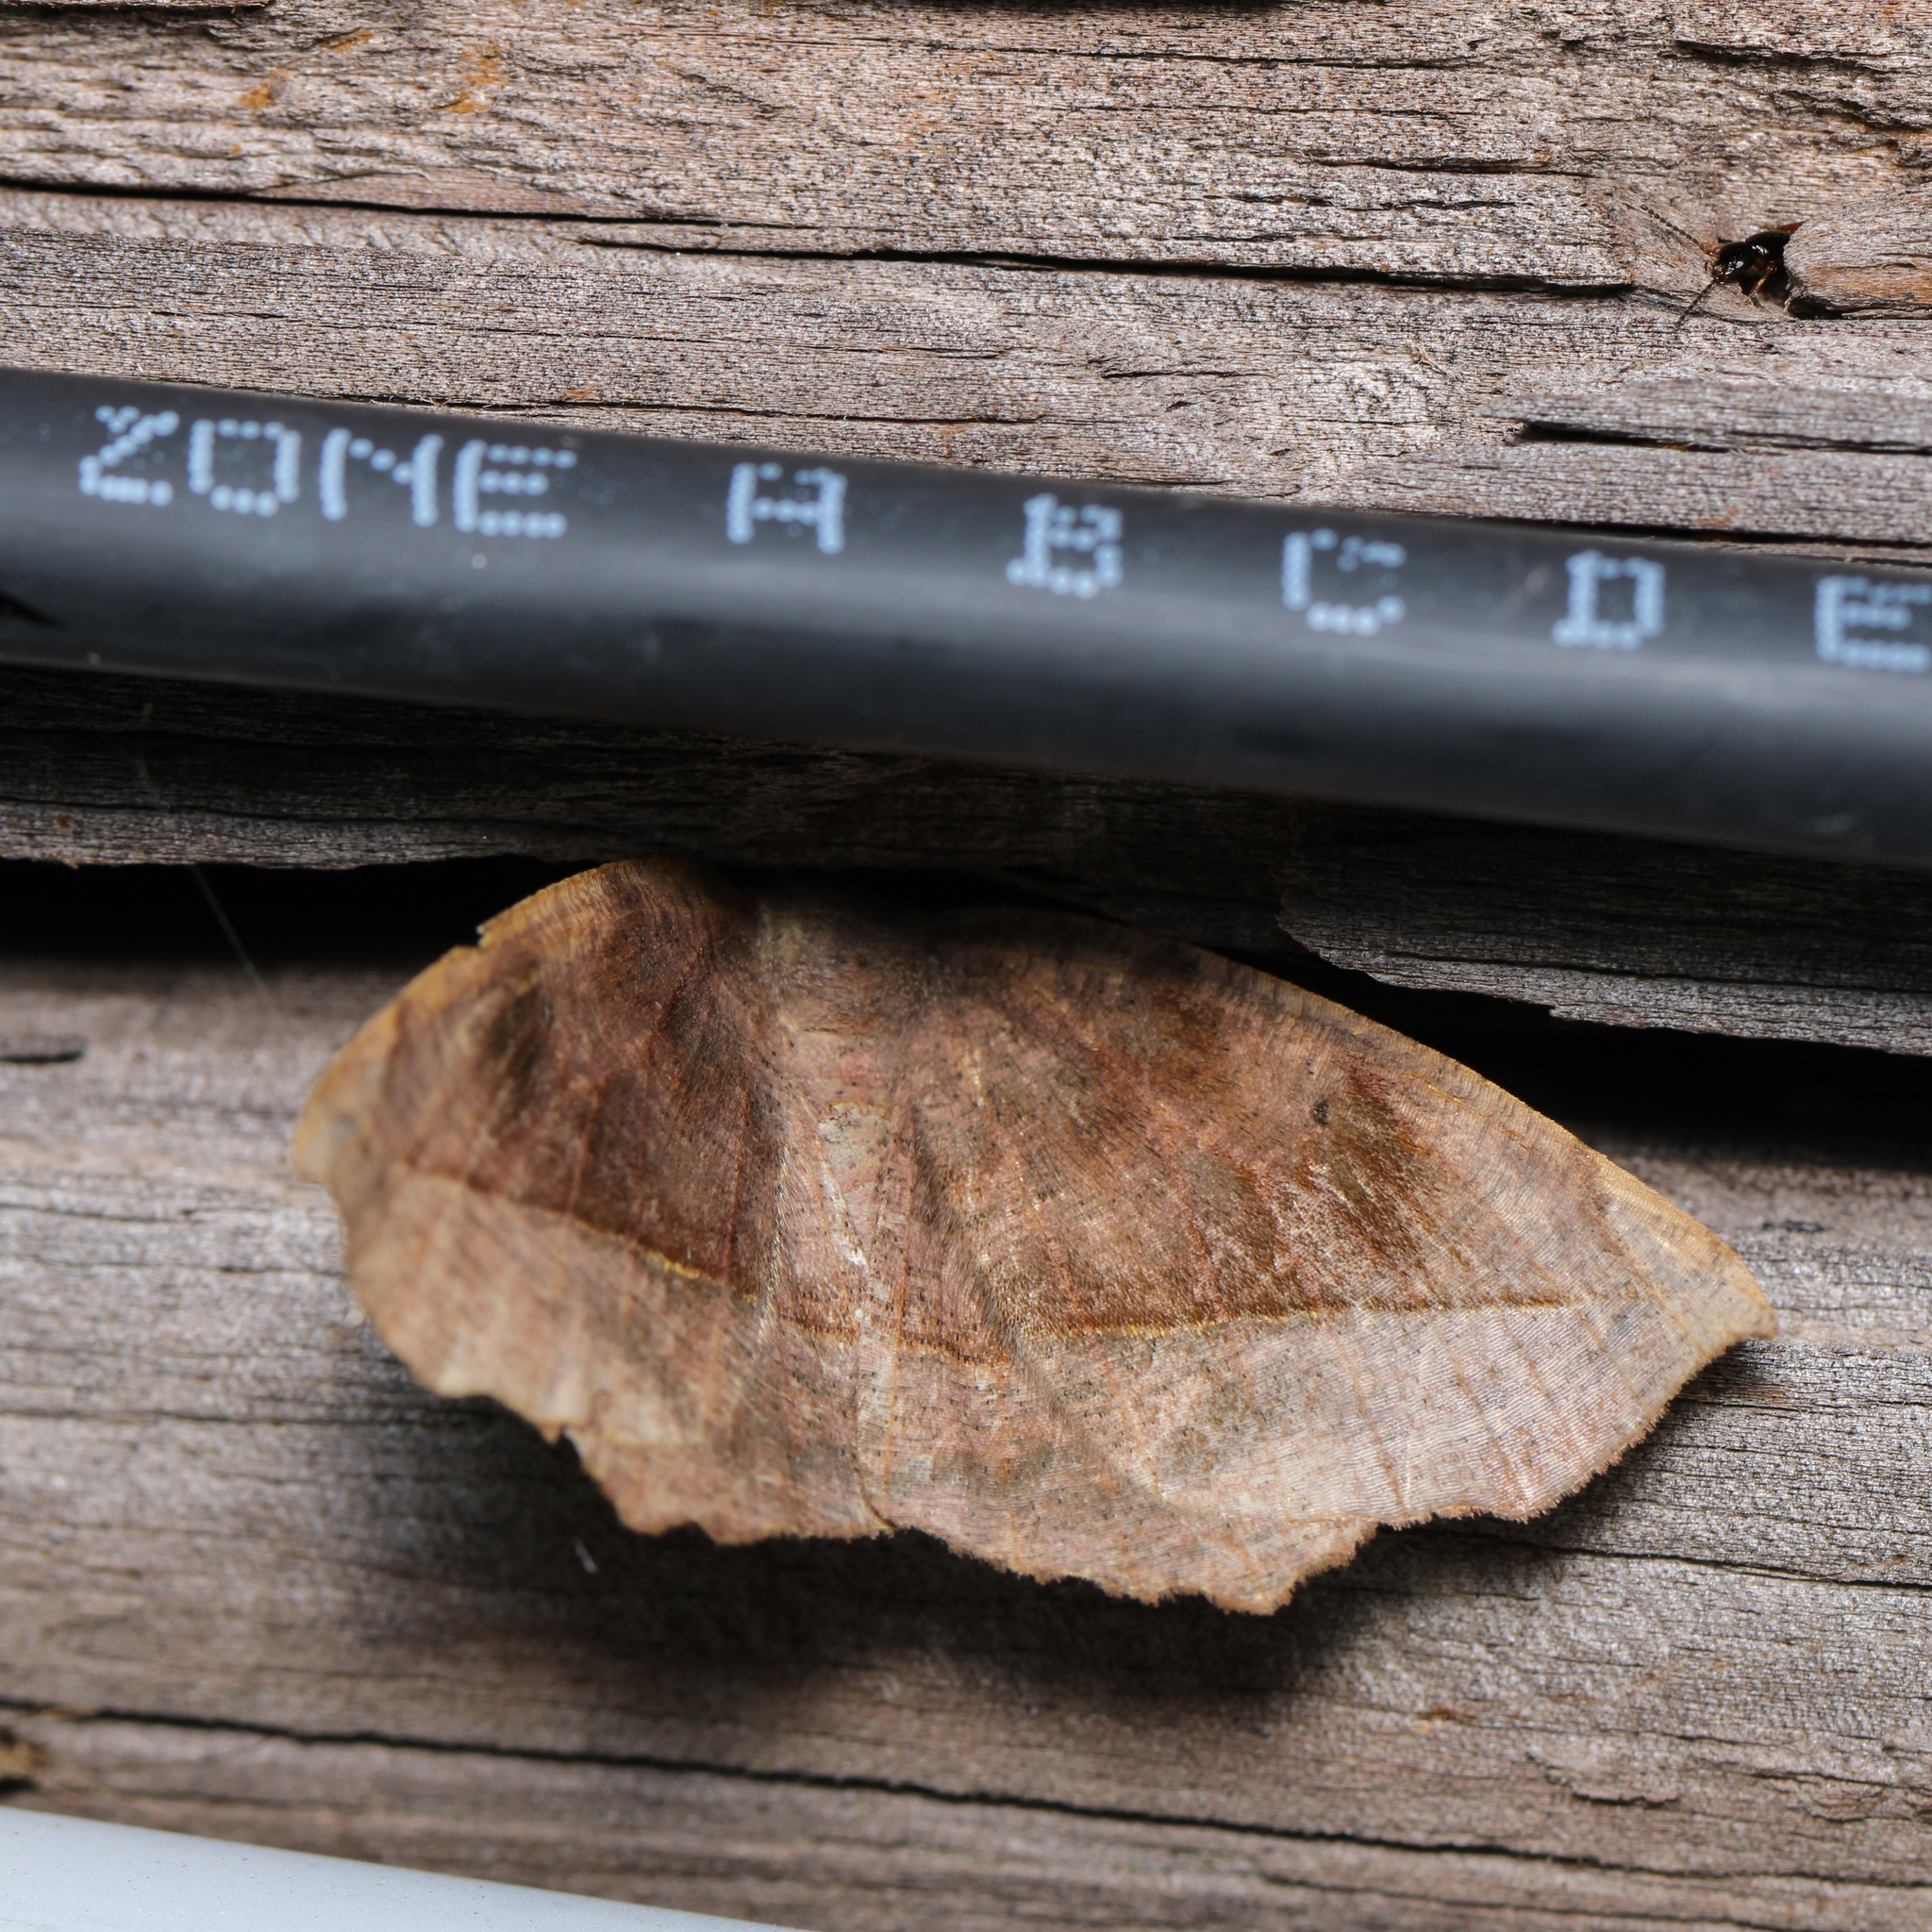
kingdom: Animalia
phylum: Arthropoda
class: Insecta
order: Lepidoptera
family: Geometridae
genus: Eutrapela
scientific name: Eutrapela clemataria
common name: Curved-toothed geometer
